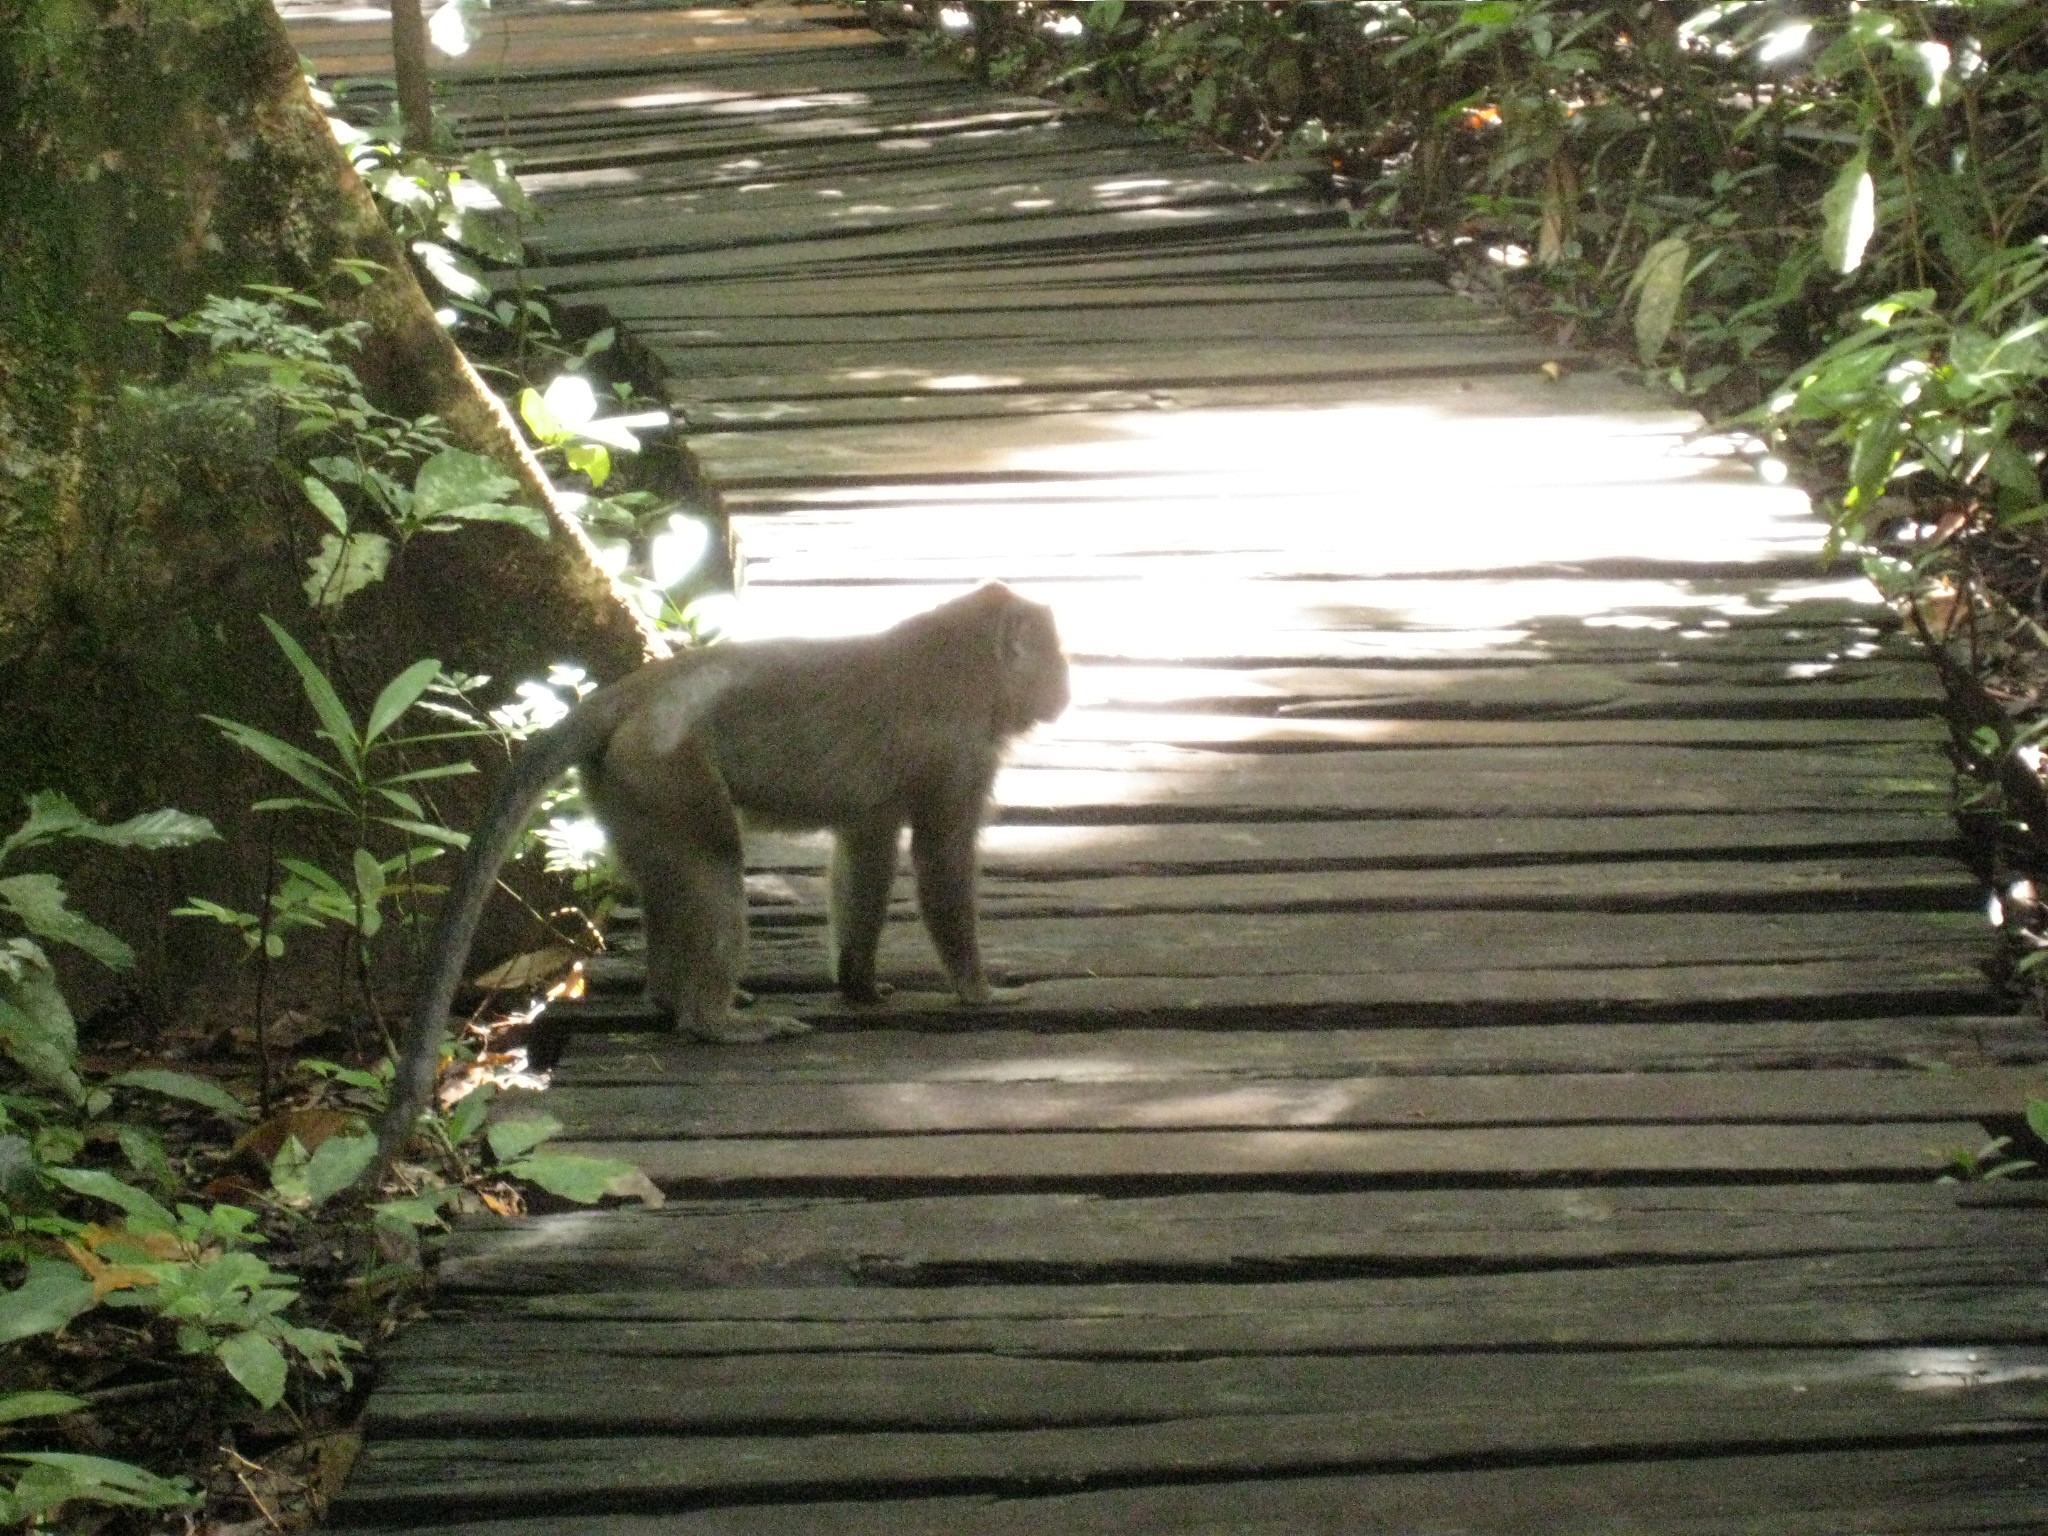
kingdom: Animalia
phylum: Chordata
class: Mammalia
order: Primates
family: Cercopithecidae
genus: Macaca
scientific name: Macaca fascicularis
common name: Crab-eating macaque
